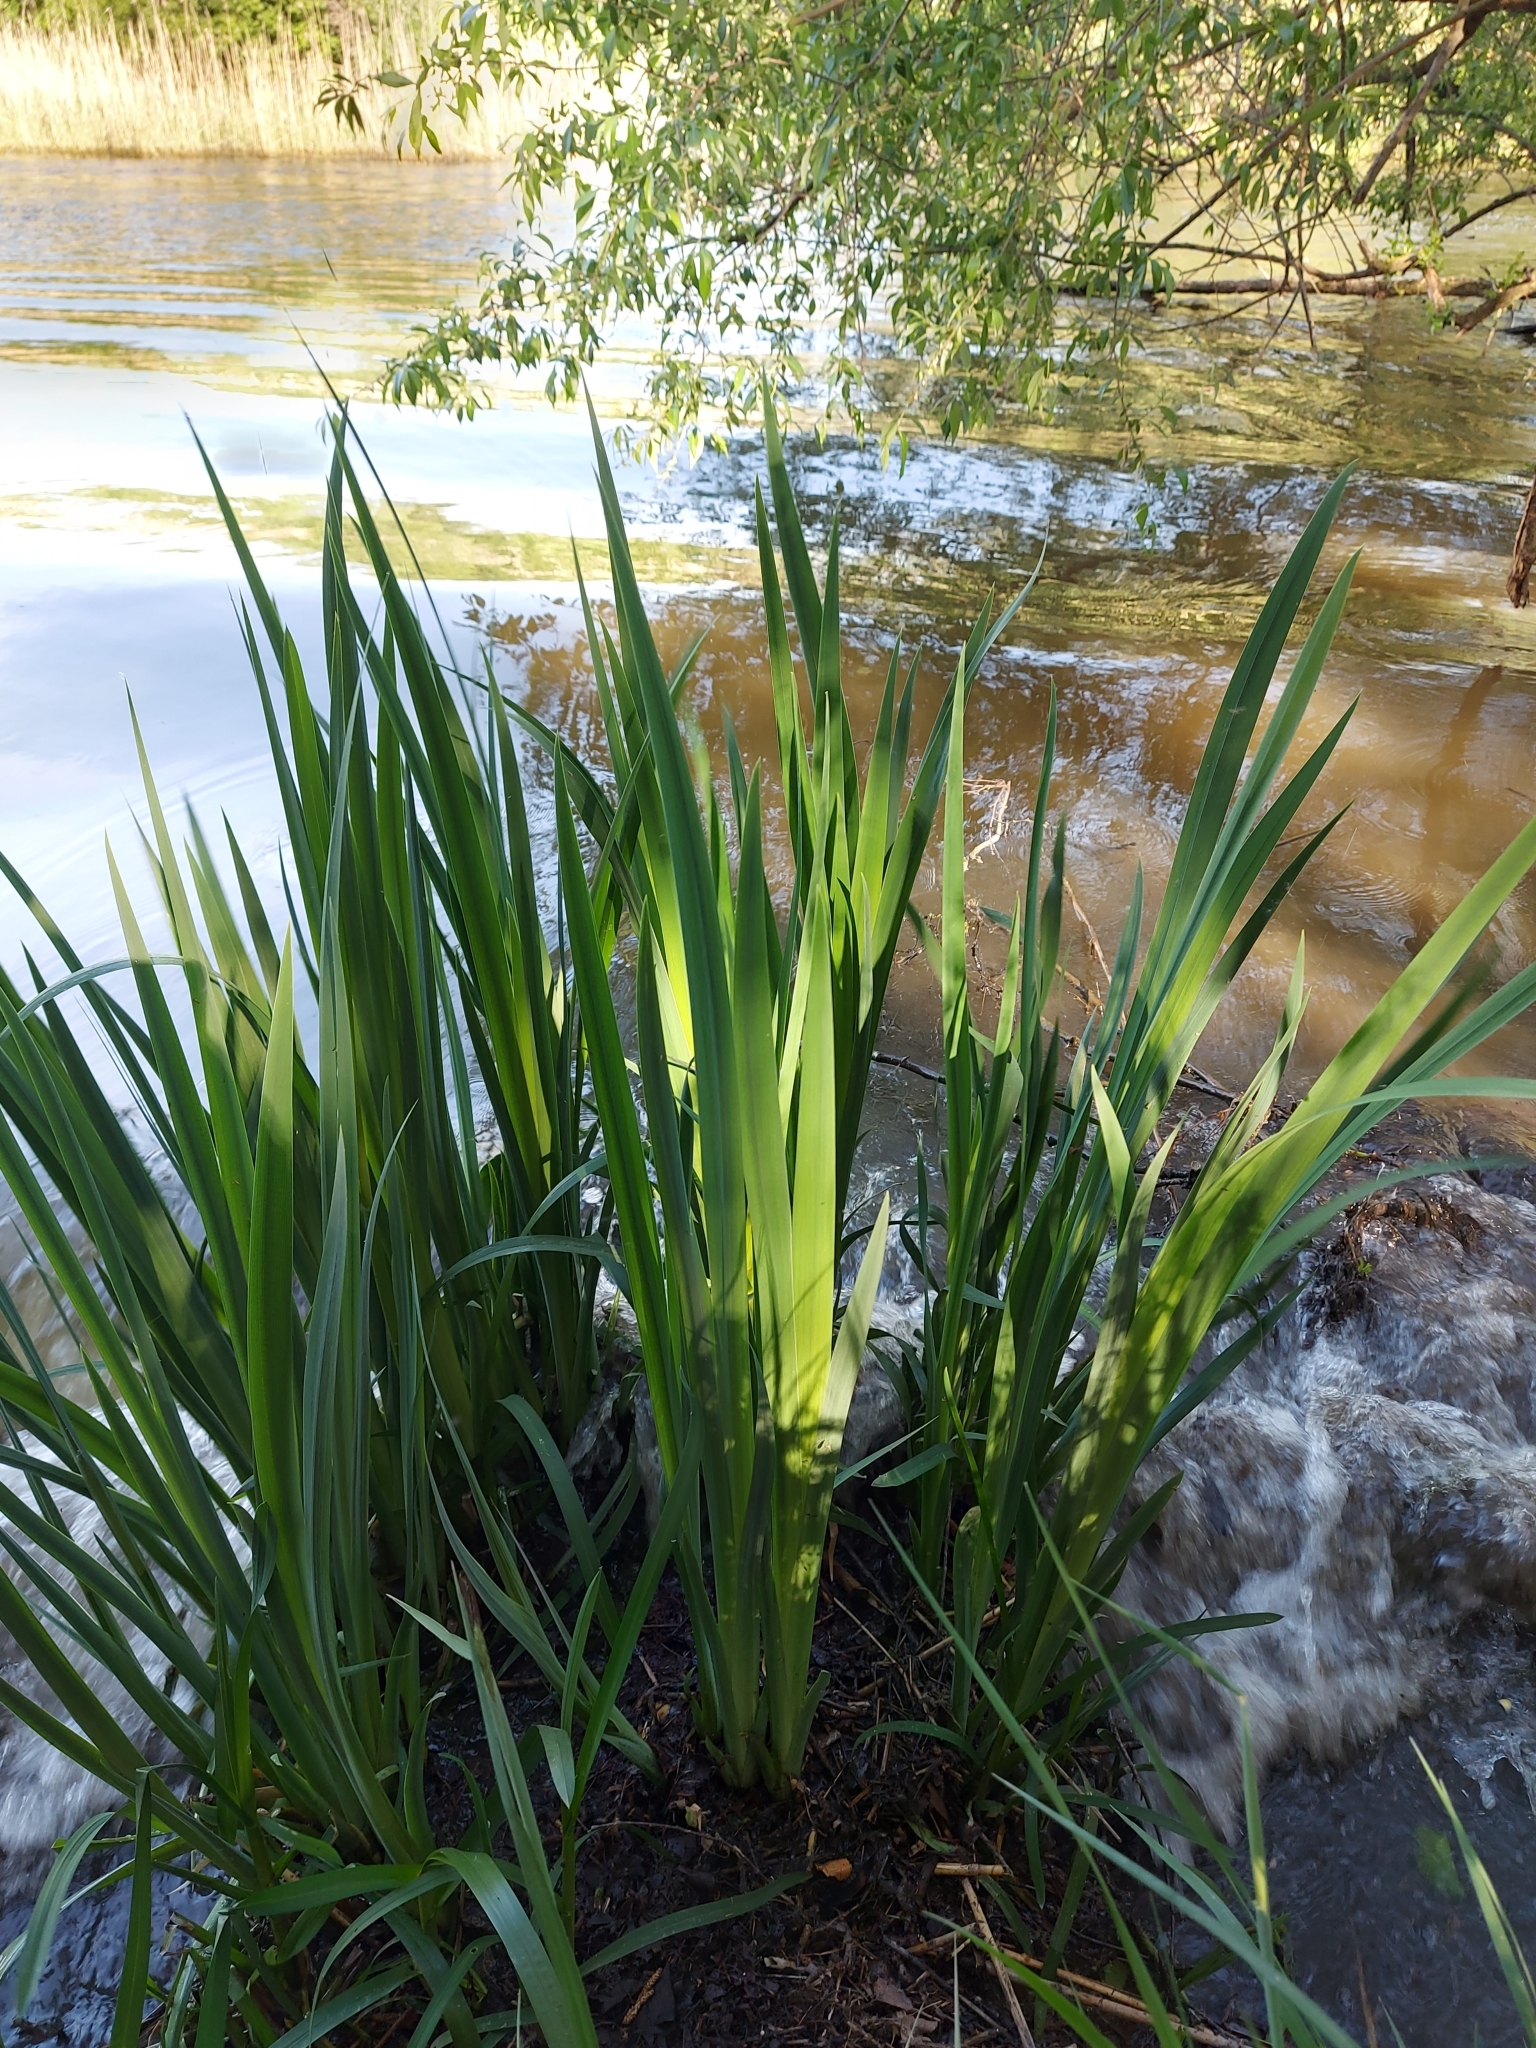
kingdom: Plantae
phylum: Tracheophyta
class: Liliopsida
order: Asparagales
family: Iridaceae
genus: Iris
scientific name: Iris pseudacorus
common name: Yellow flag
